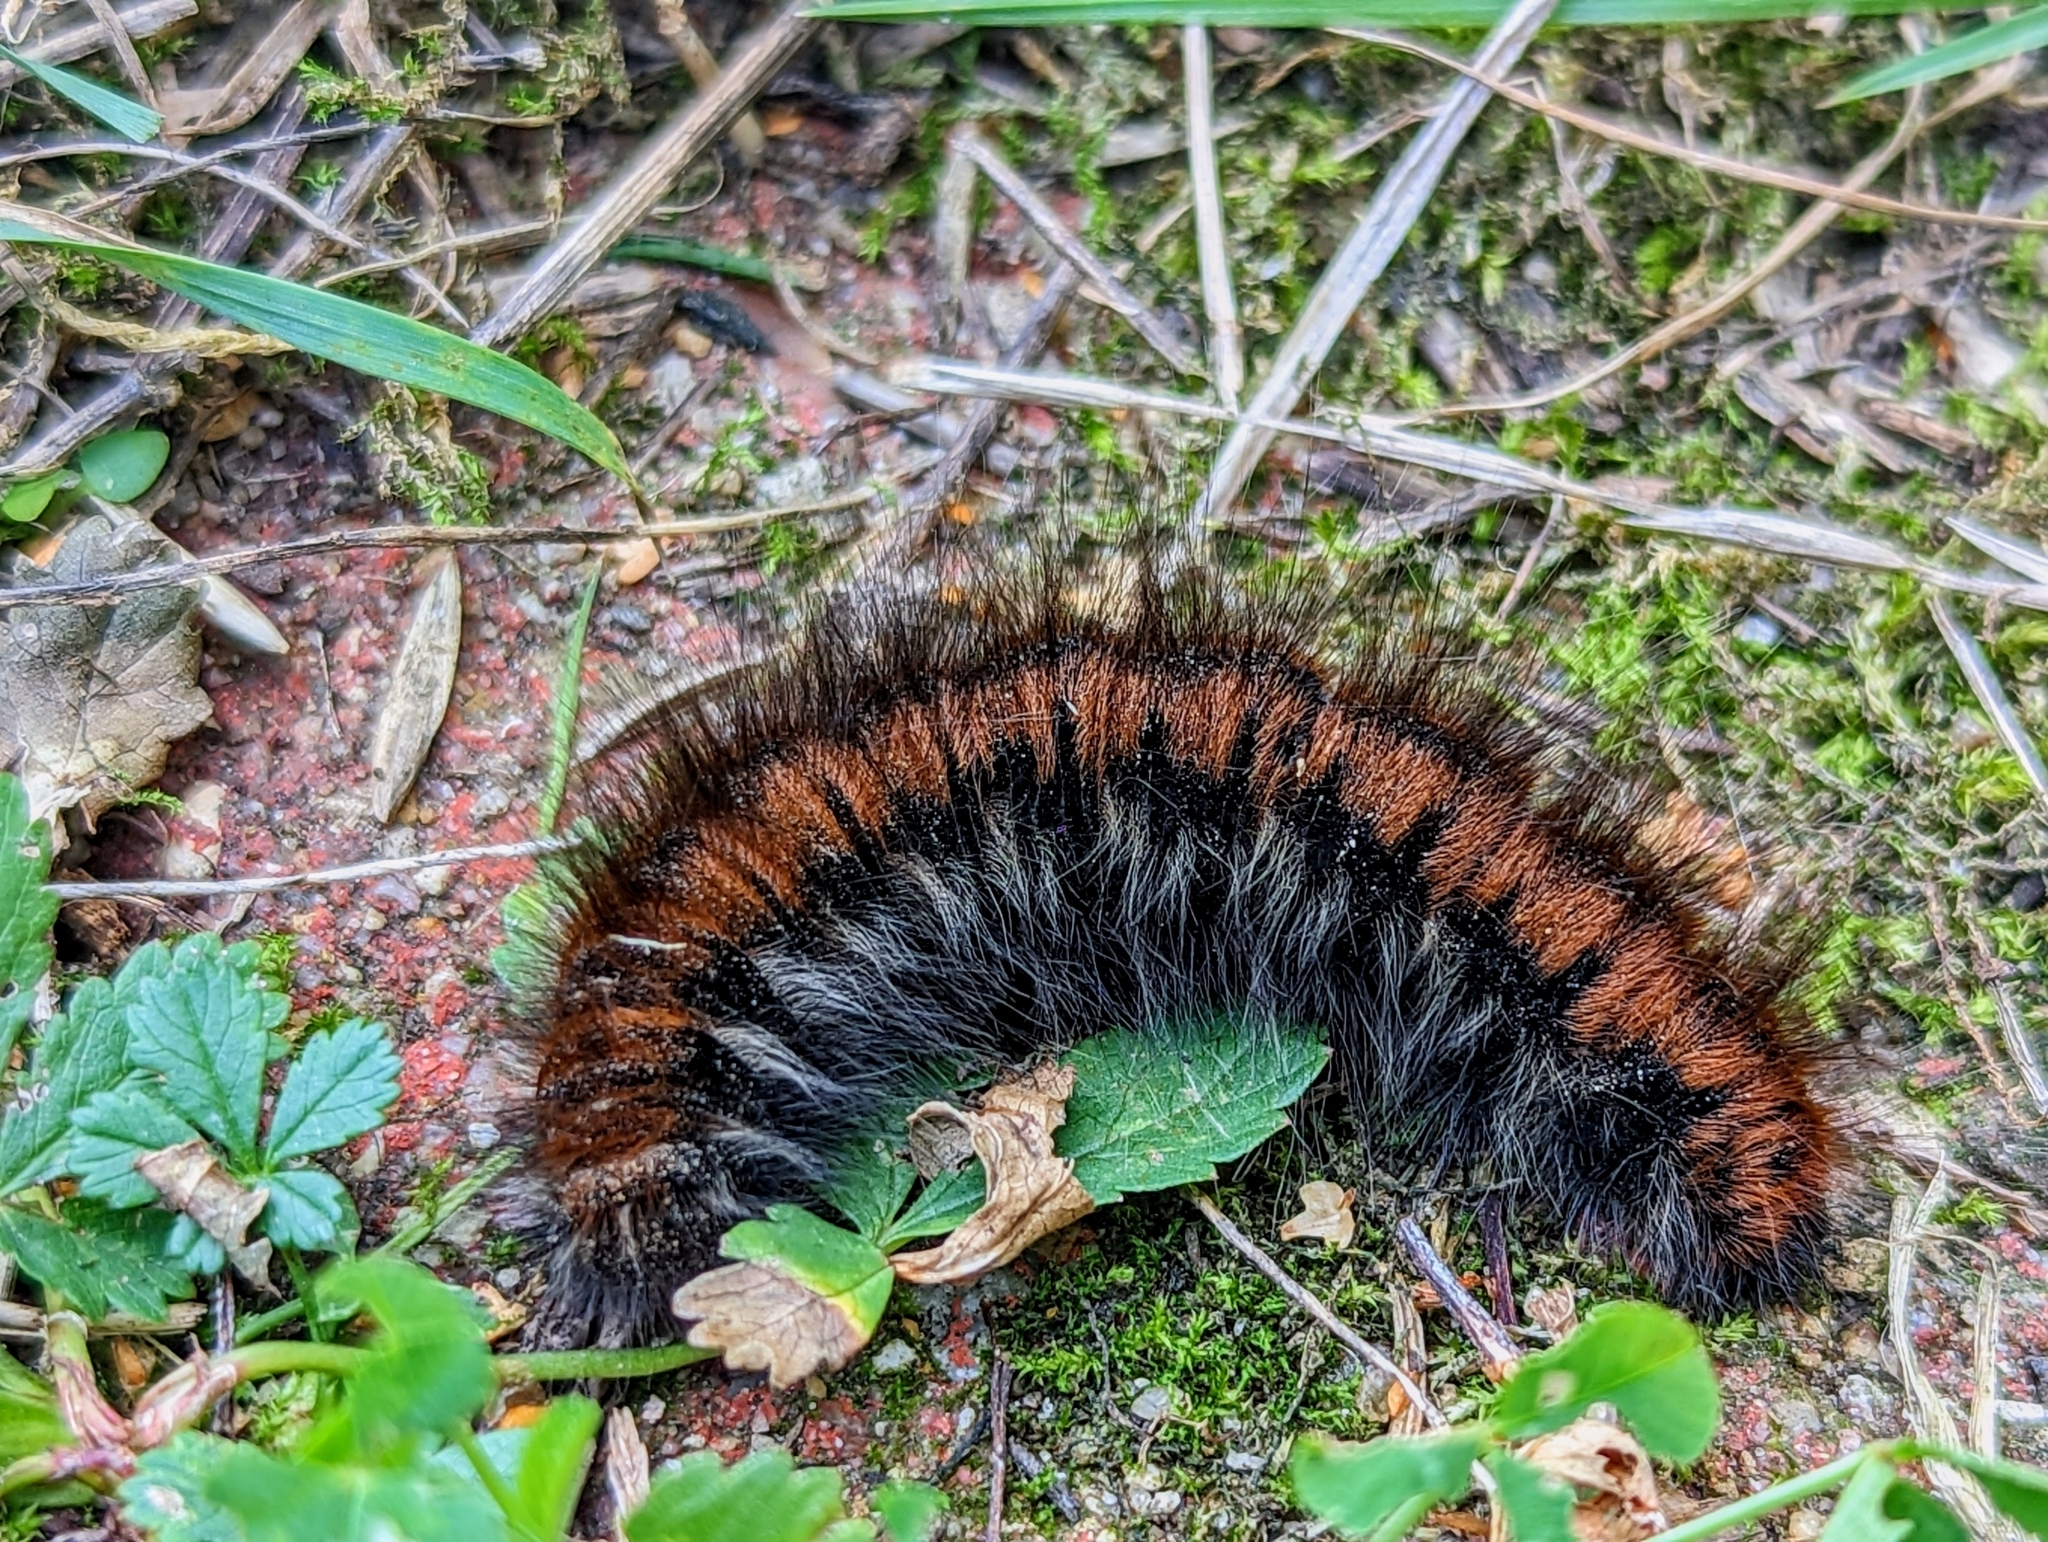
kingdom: Animalia
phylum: Arthropoda
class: Insecta
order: Lepidoptera
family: Lasiocampidae
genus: Macrothylacia
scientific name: Macrothylacia rubi
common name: Fox moth
